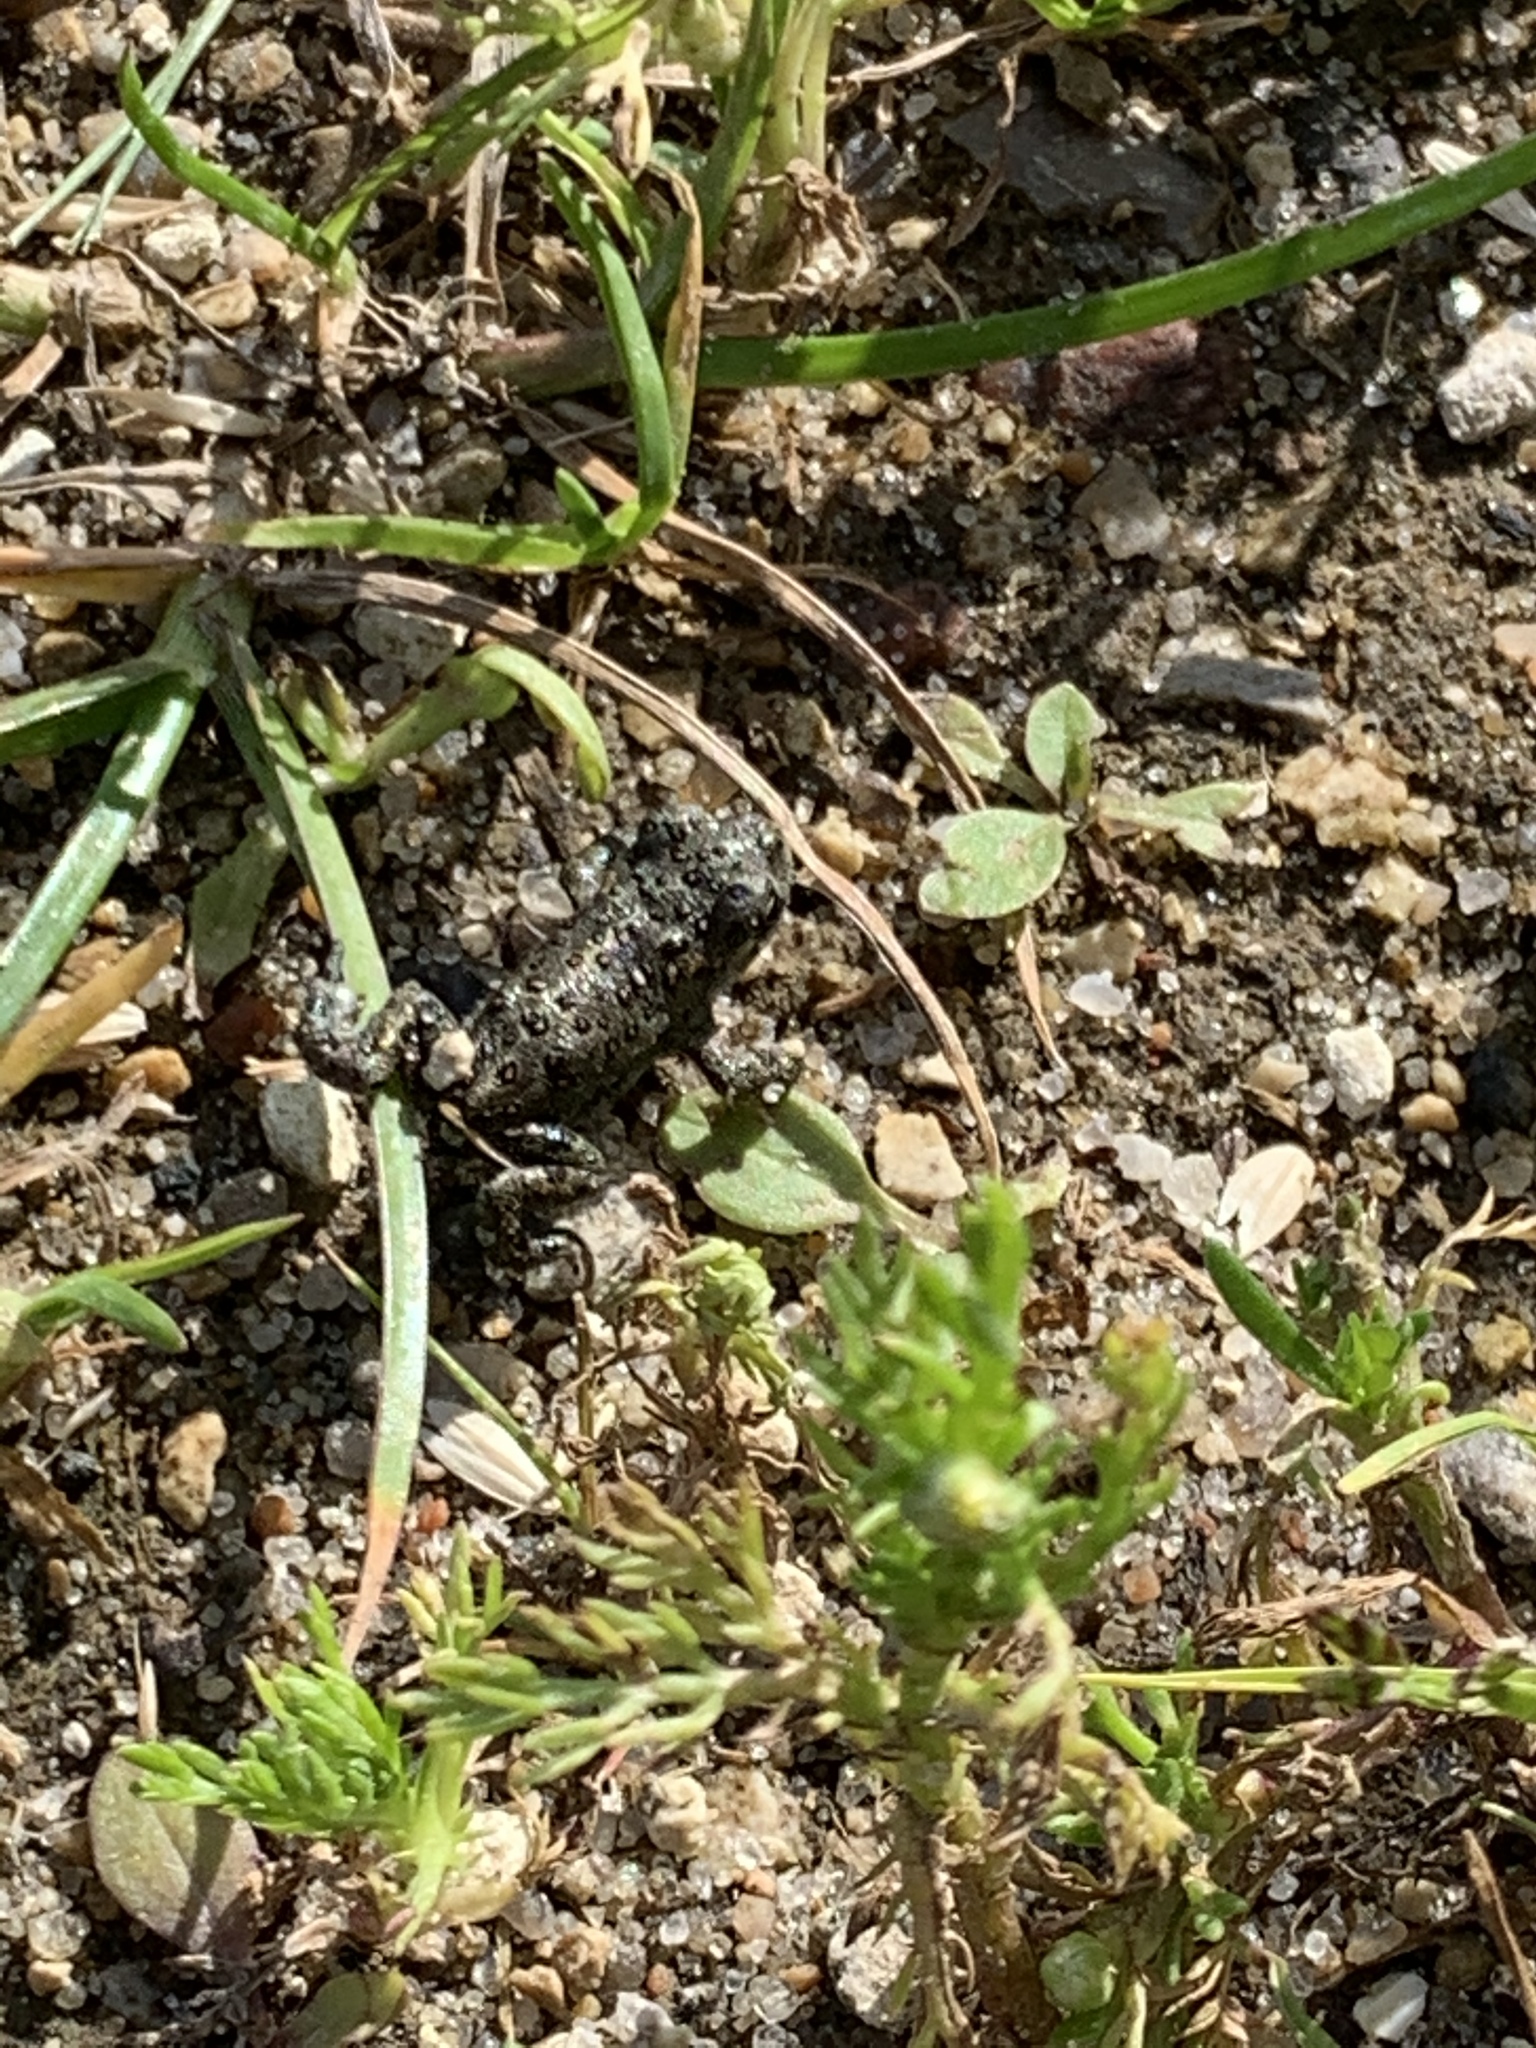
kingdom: Animalia
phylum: Chordata
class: Amphibia
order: Anura
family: Bufonidae
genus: Epidalea
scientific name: Epidalea calamita
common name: Natterjack toad
